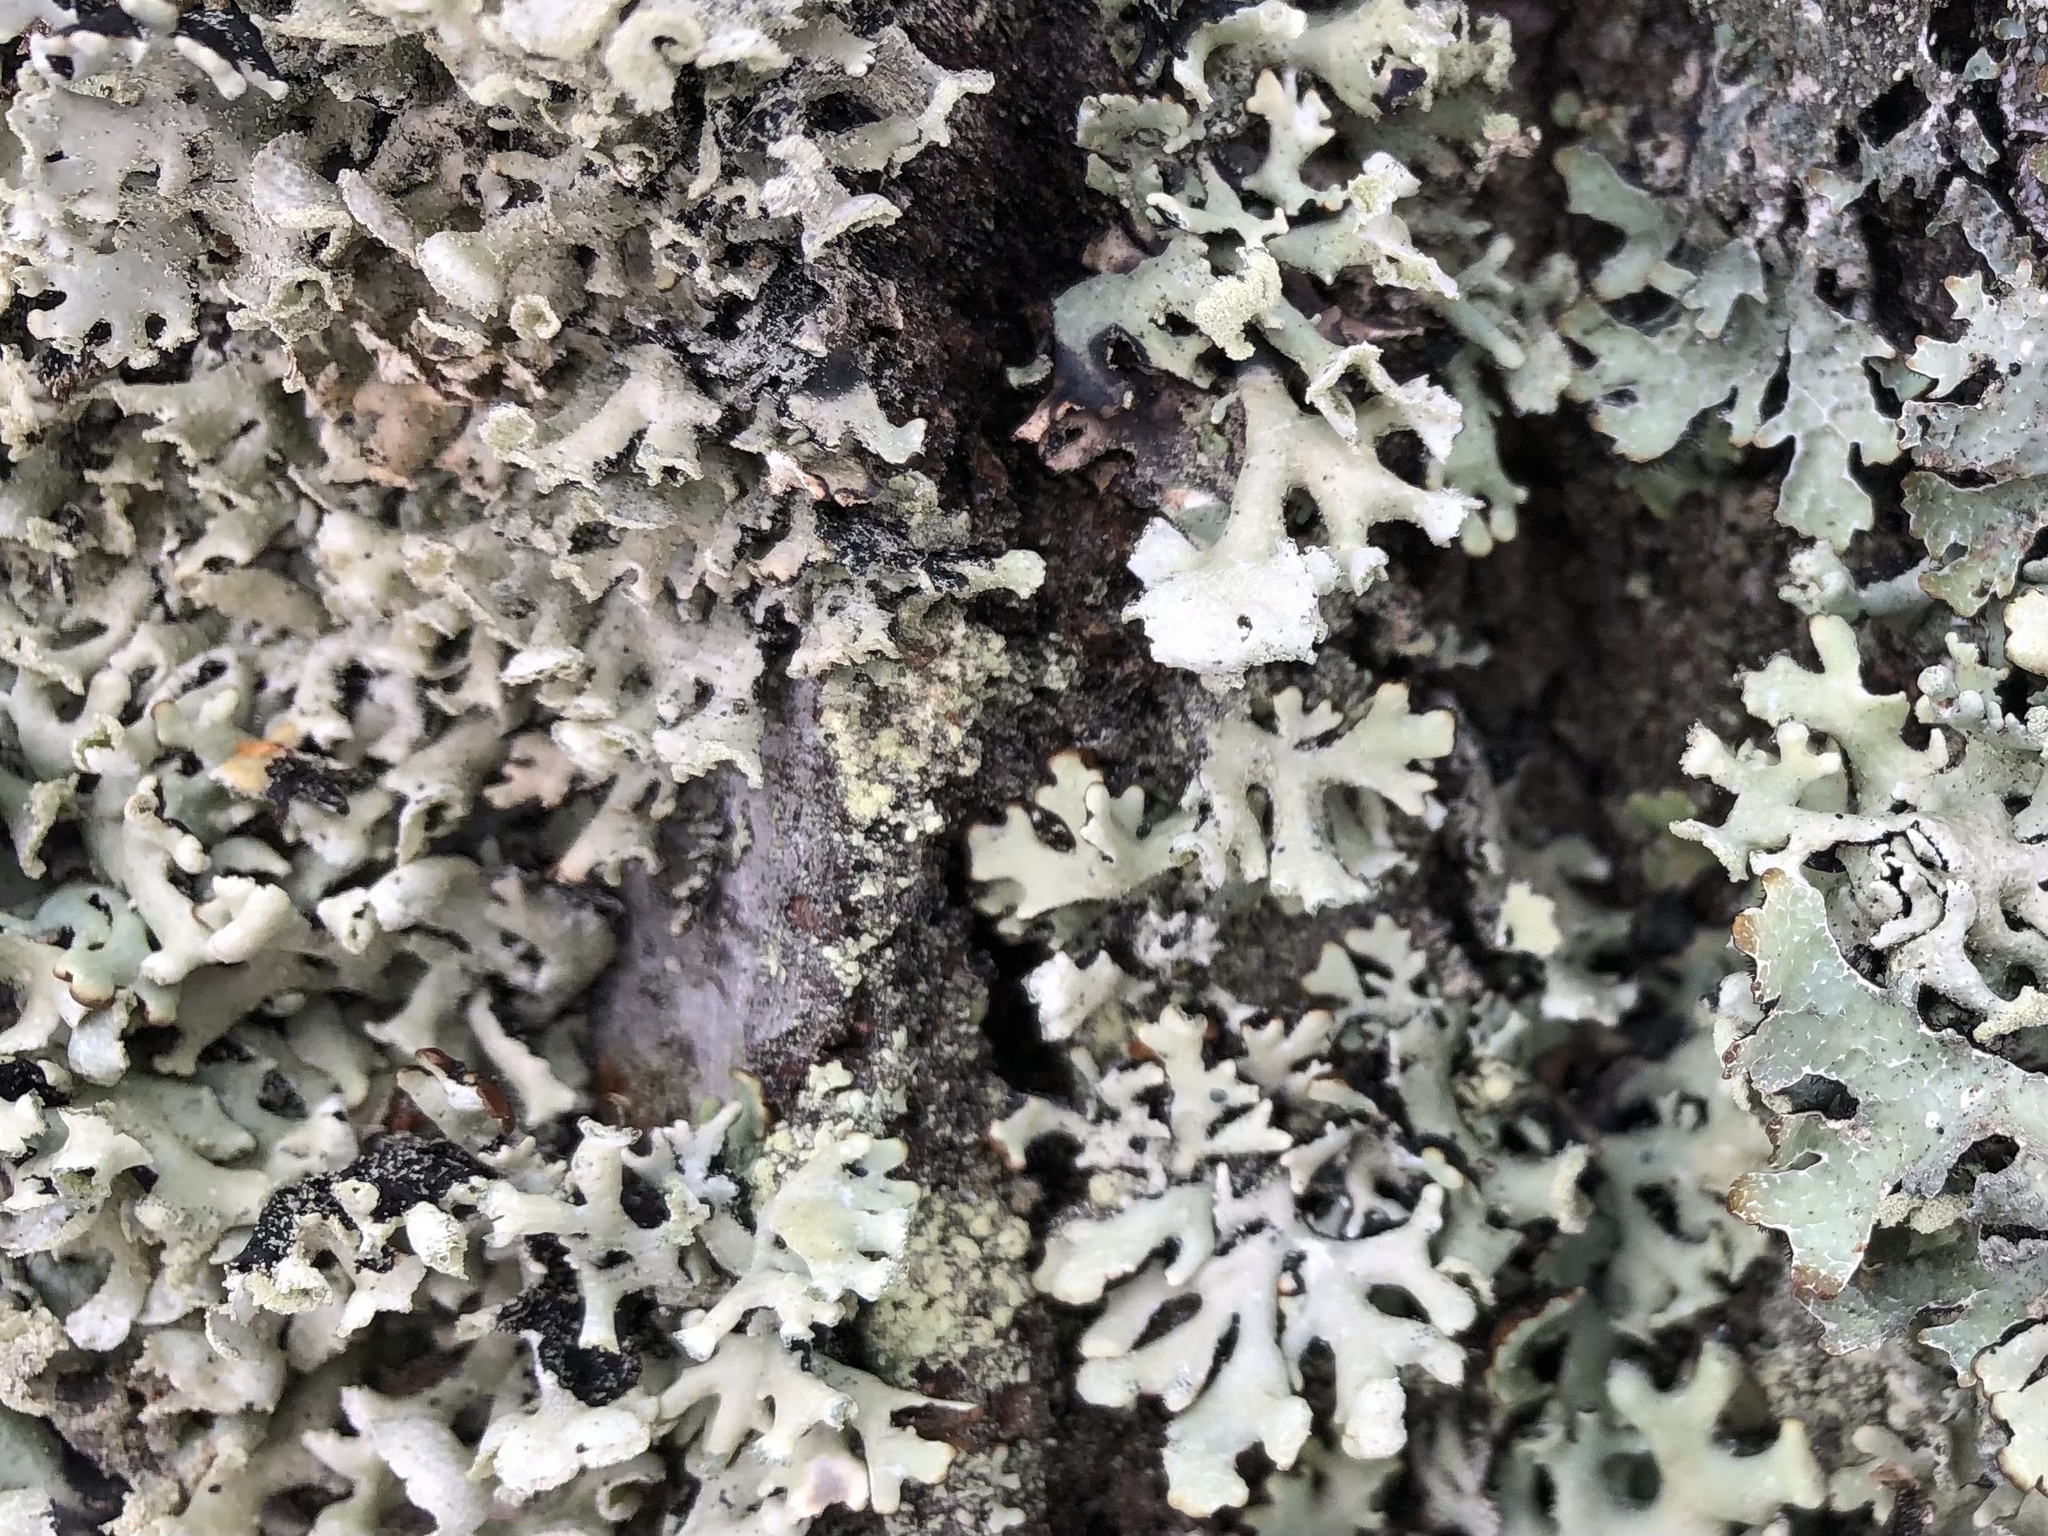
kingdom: Fungi
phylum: Ascomycota
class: Lecanoromycetes
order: Lecanorales
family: Parmeliaceae
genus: Hypogymnia
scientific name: Hypogymnia physodes
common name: Dark crottle
